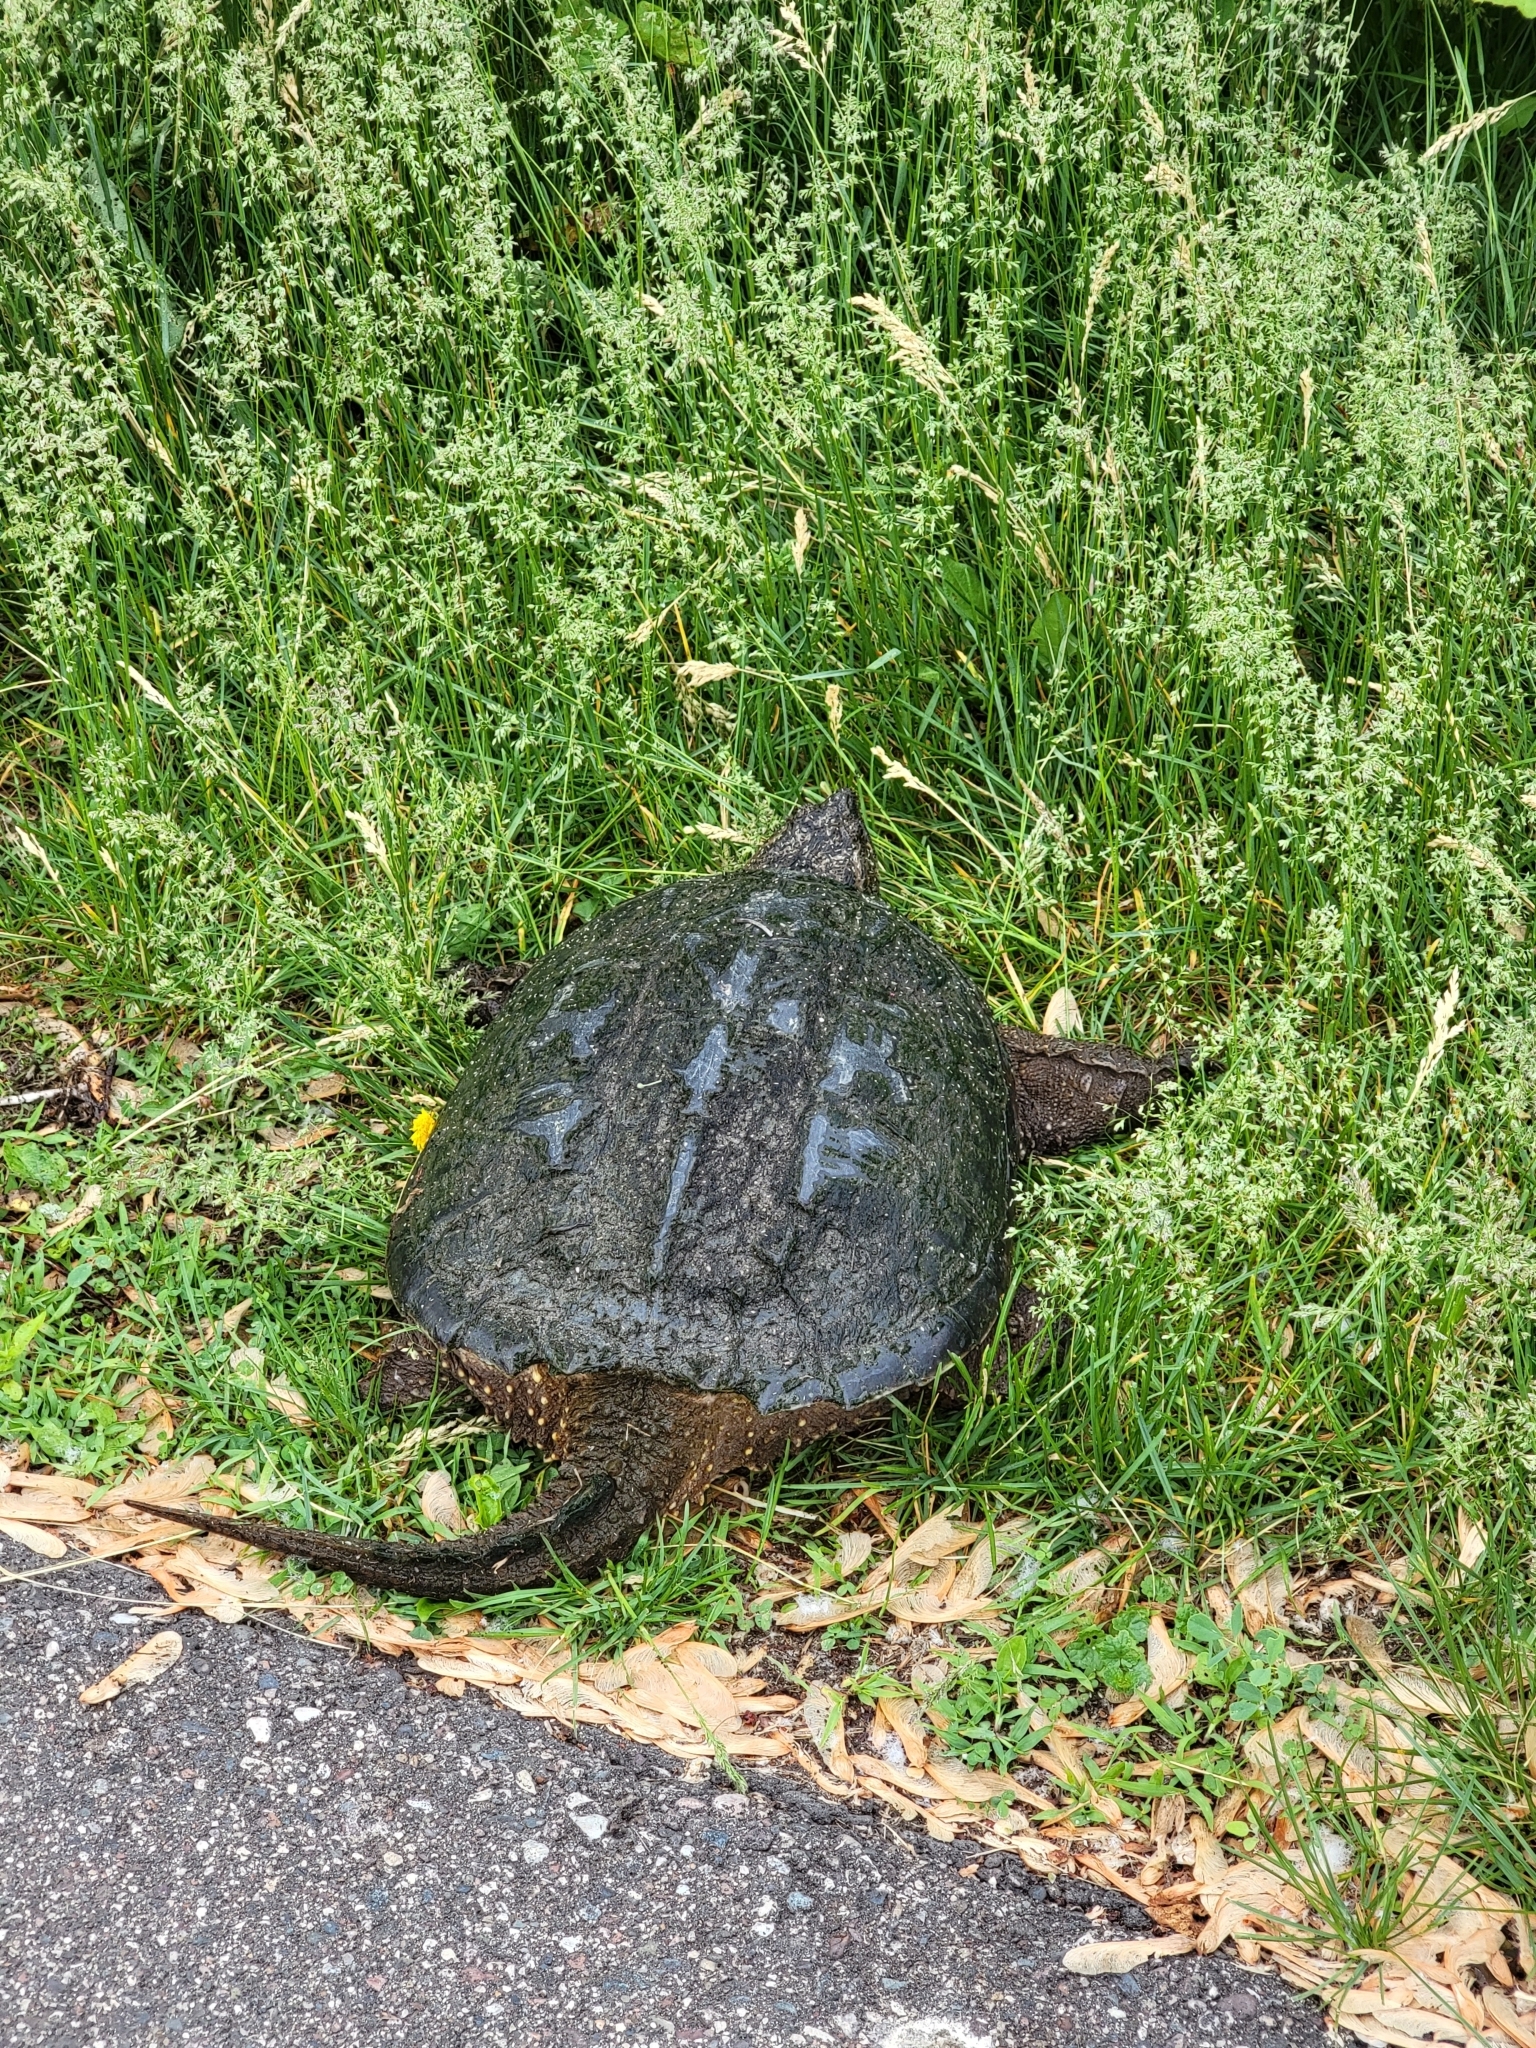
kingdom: Animalia
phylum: Chordata
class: Testudines
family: Chelydridae
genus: Chelydra
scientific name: Chelydra serpentina
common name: Common snapping turtle
